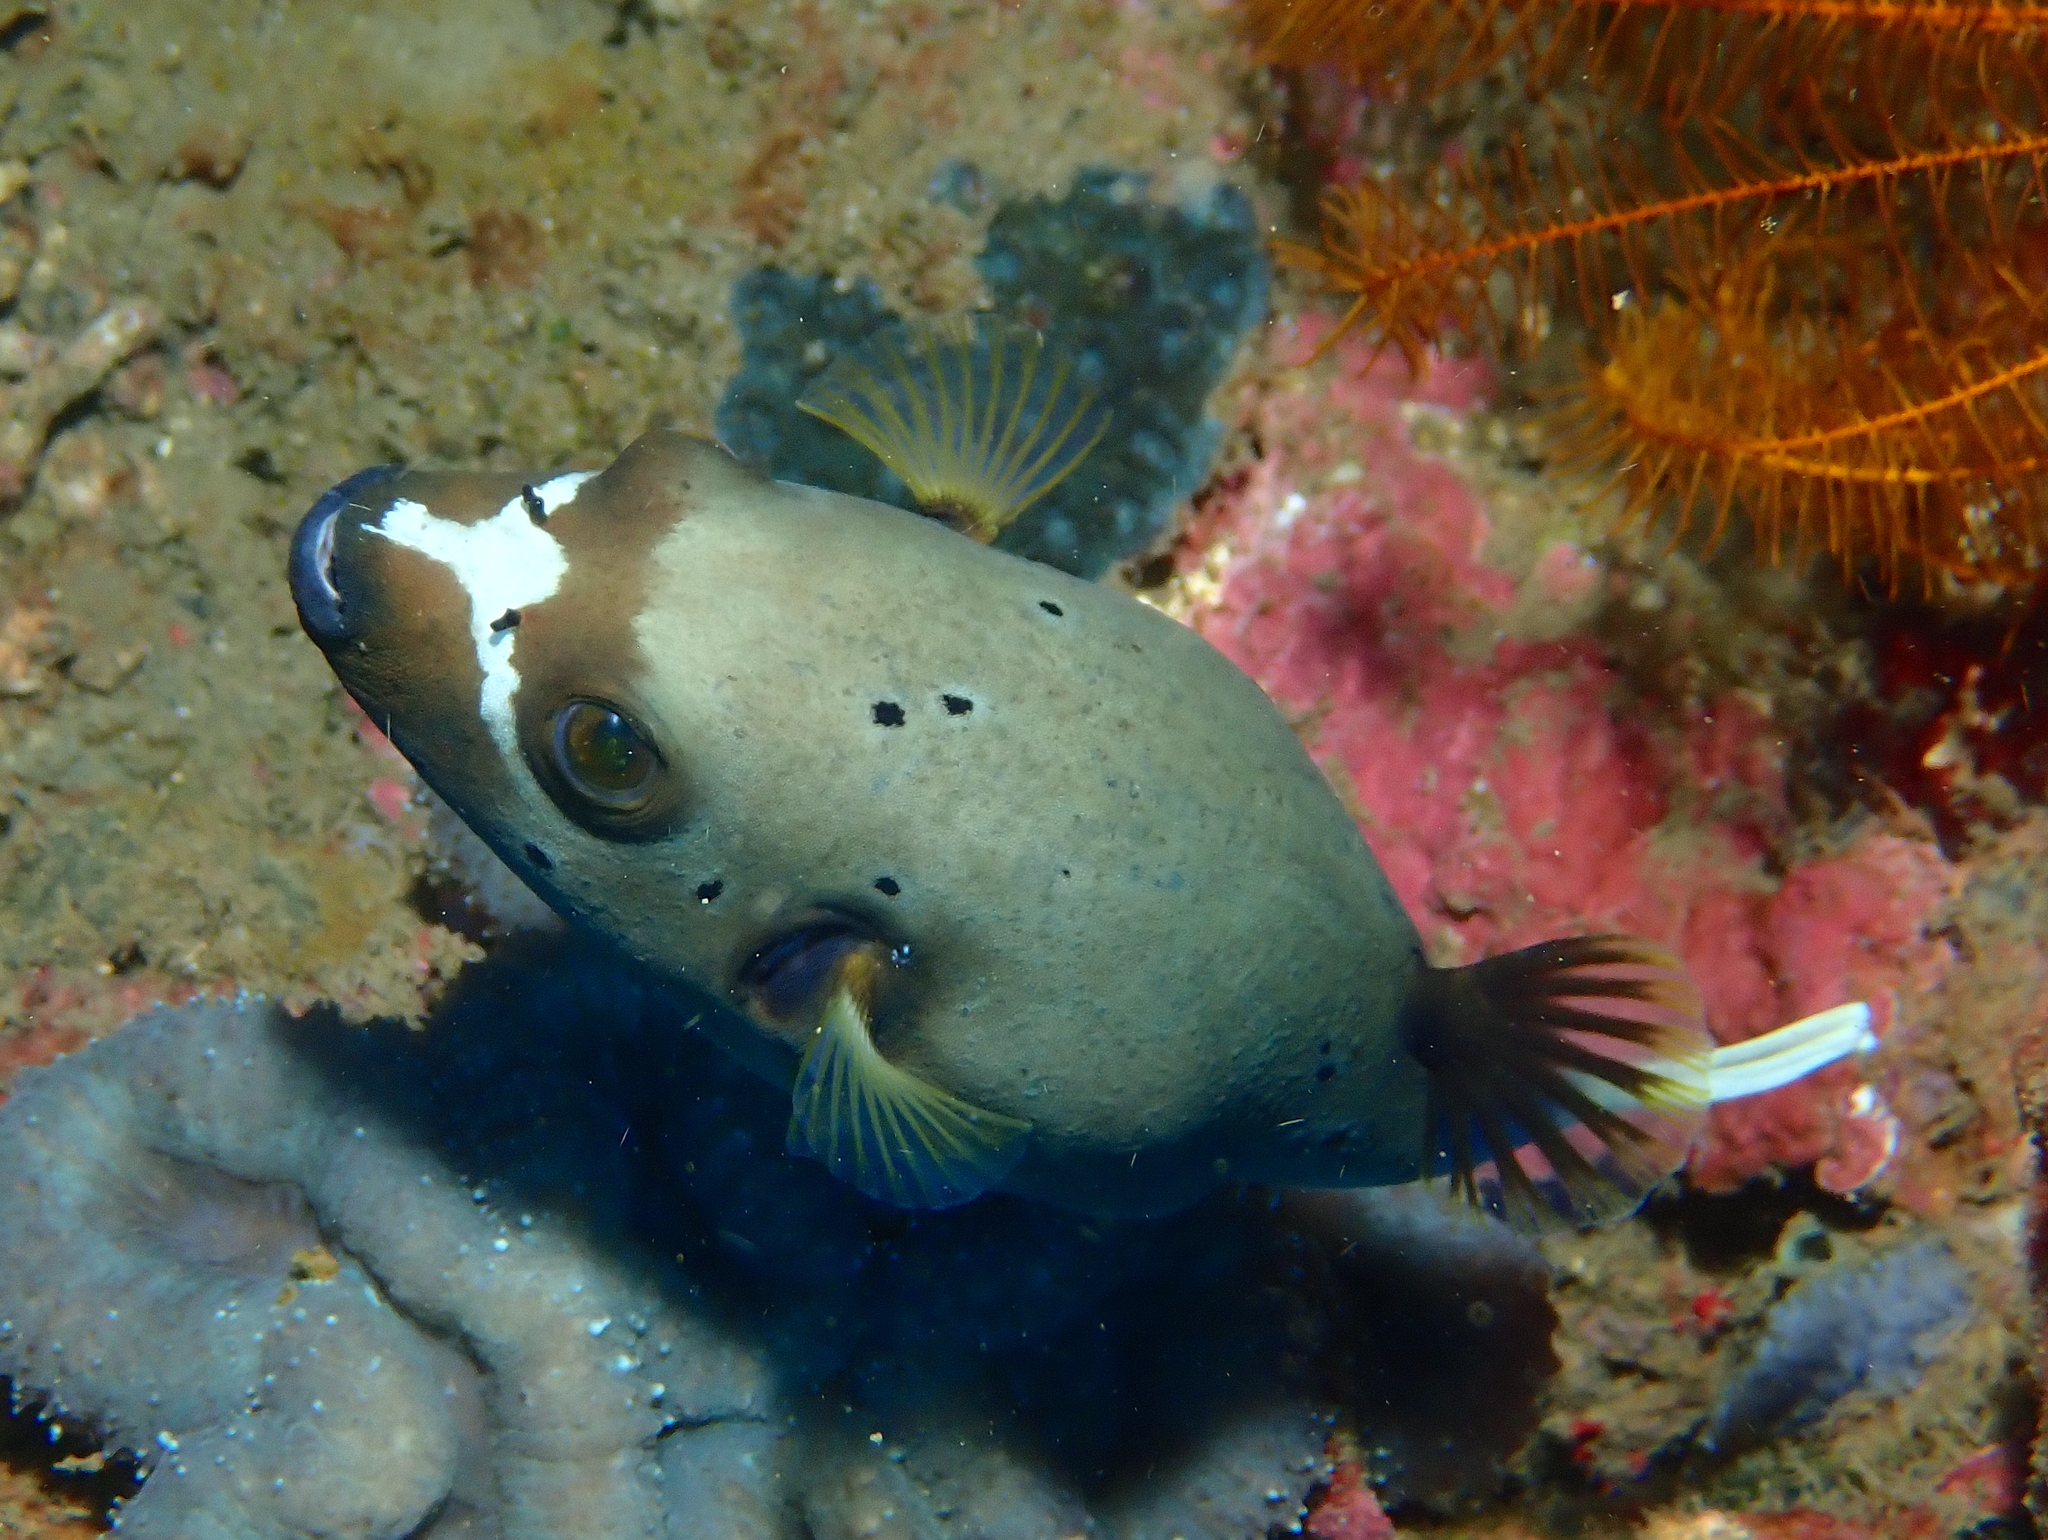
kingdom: Animalia
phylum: Chordata
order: Tetraodontiformes
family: Tetraodontidae
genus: Arothron
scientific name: Arothron nigropunctatus
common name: Black spotted blow fish
